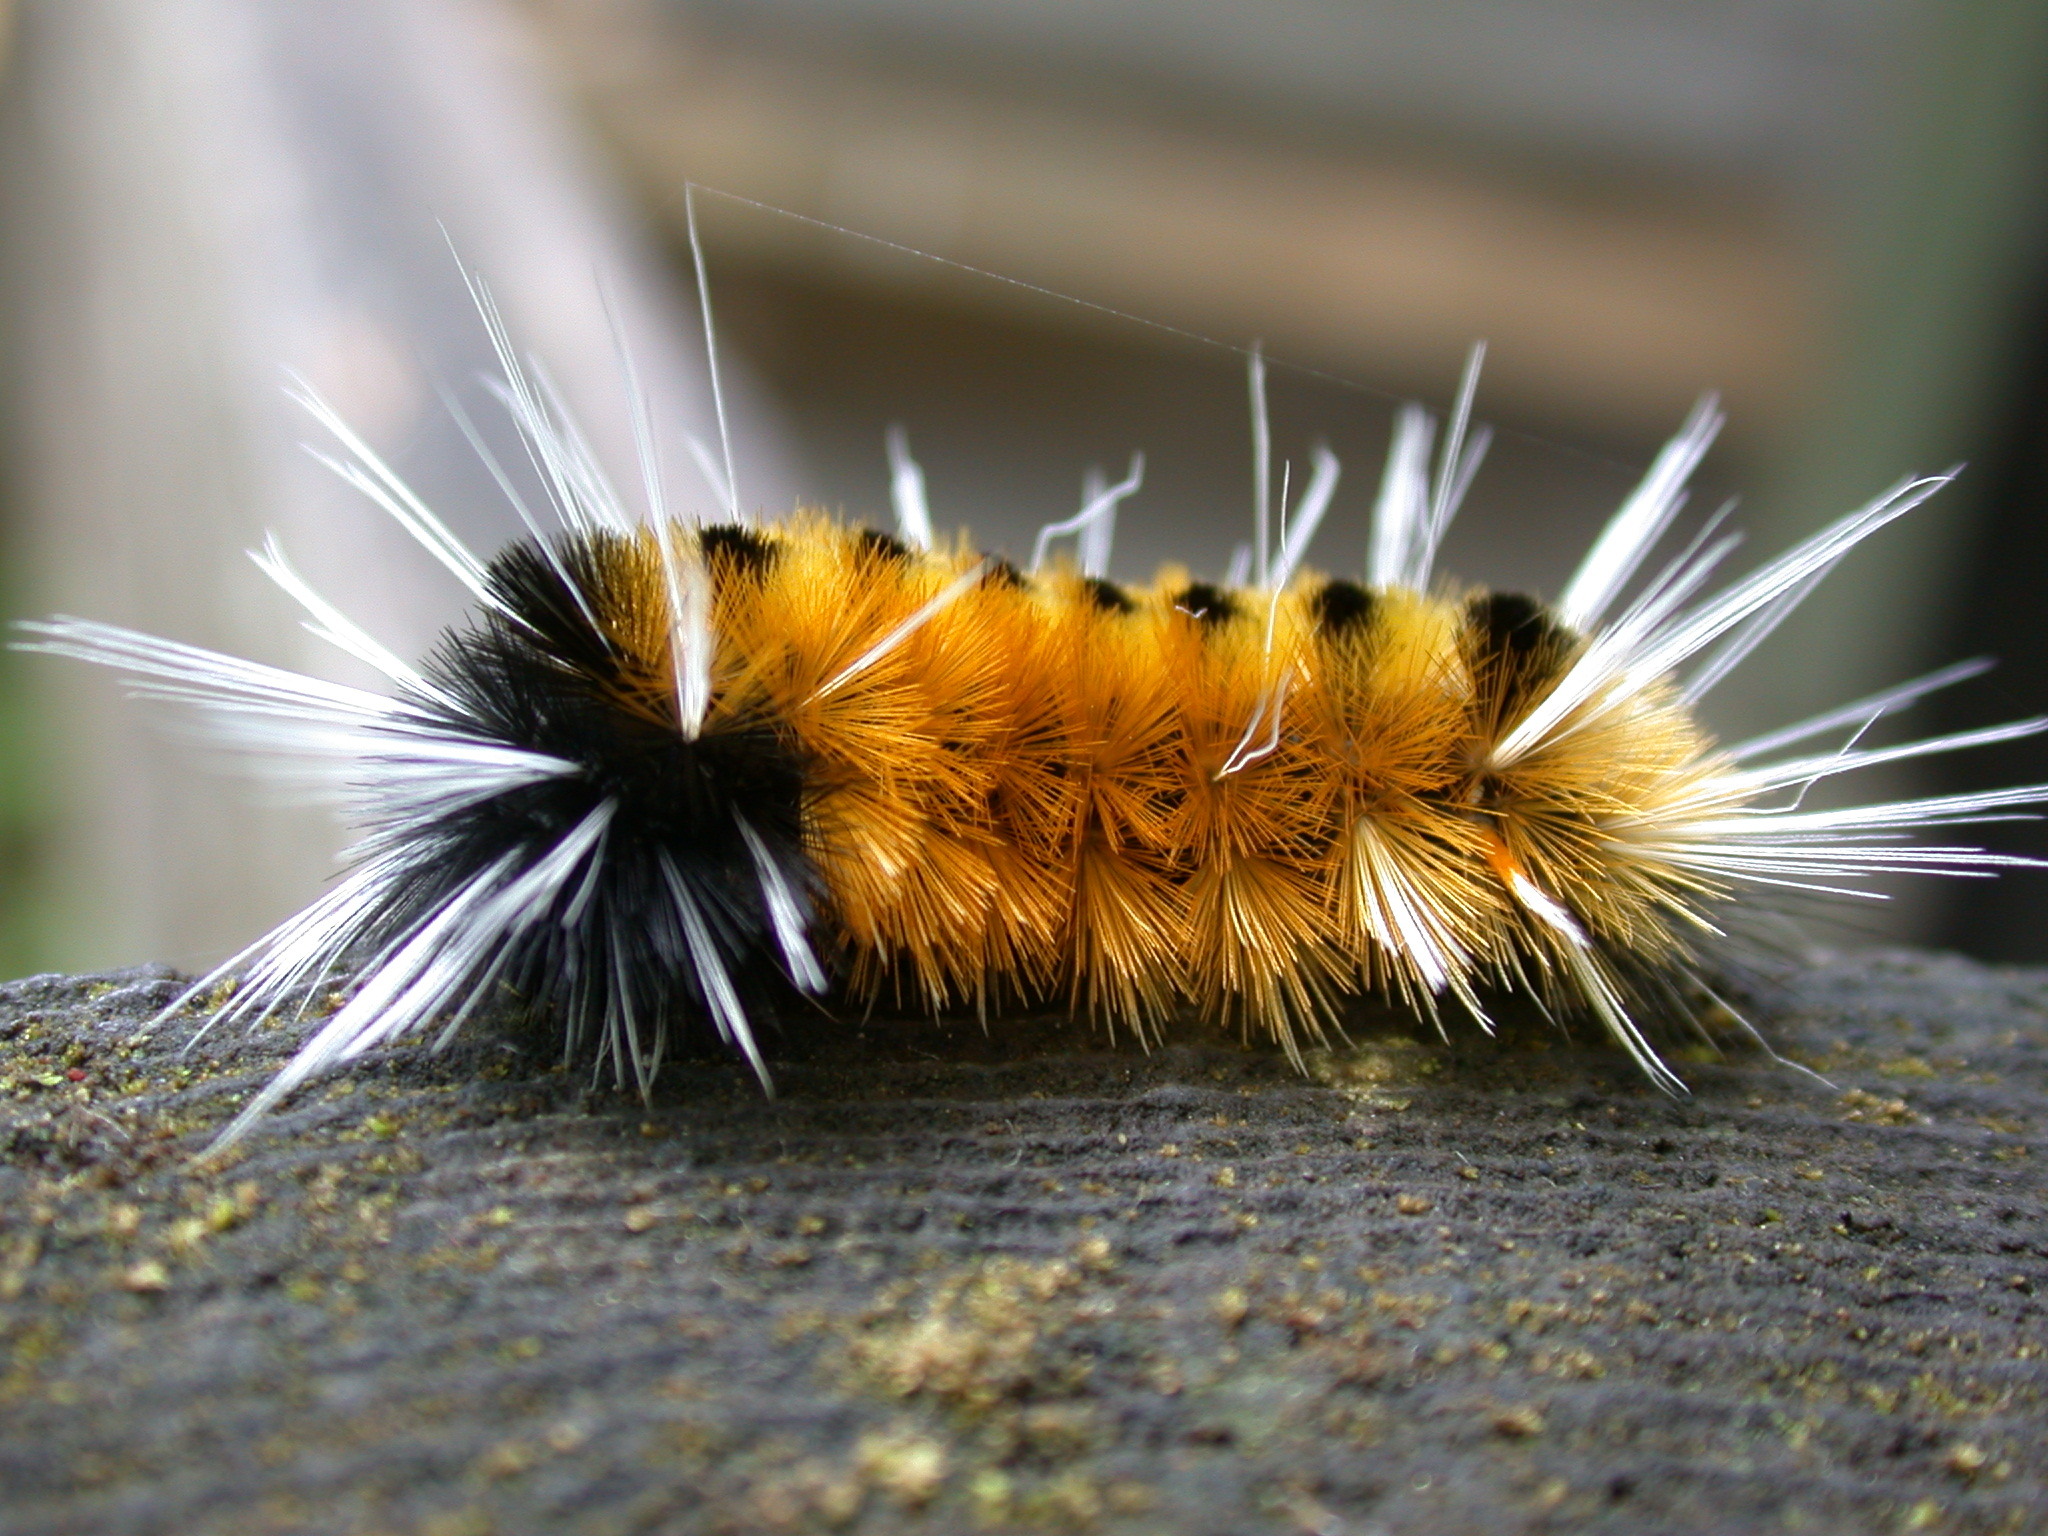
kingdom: Animalia
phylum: Arthropoda
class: Insecta
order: Lepidoptera
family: Erebidae
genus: Lophocampa
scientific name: Lophocampa maculata
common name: Spotted tussock moth
